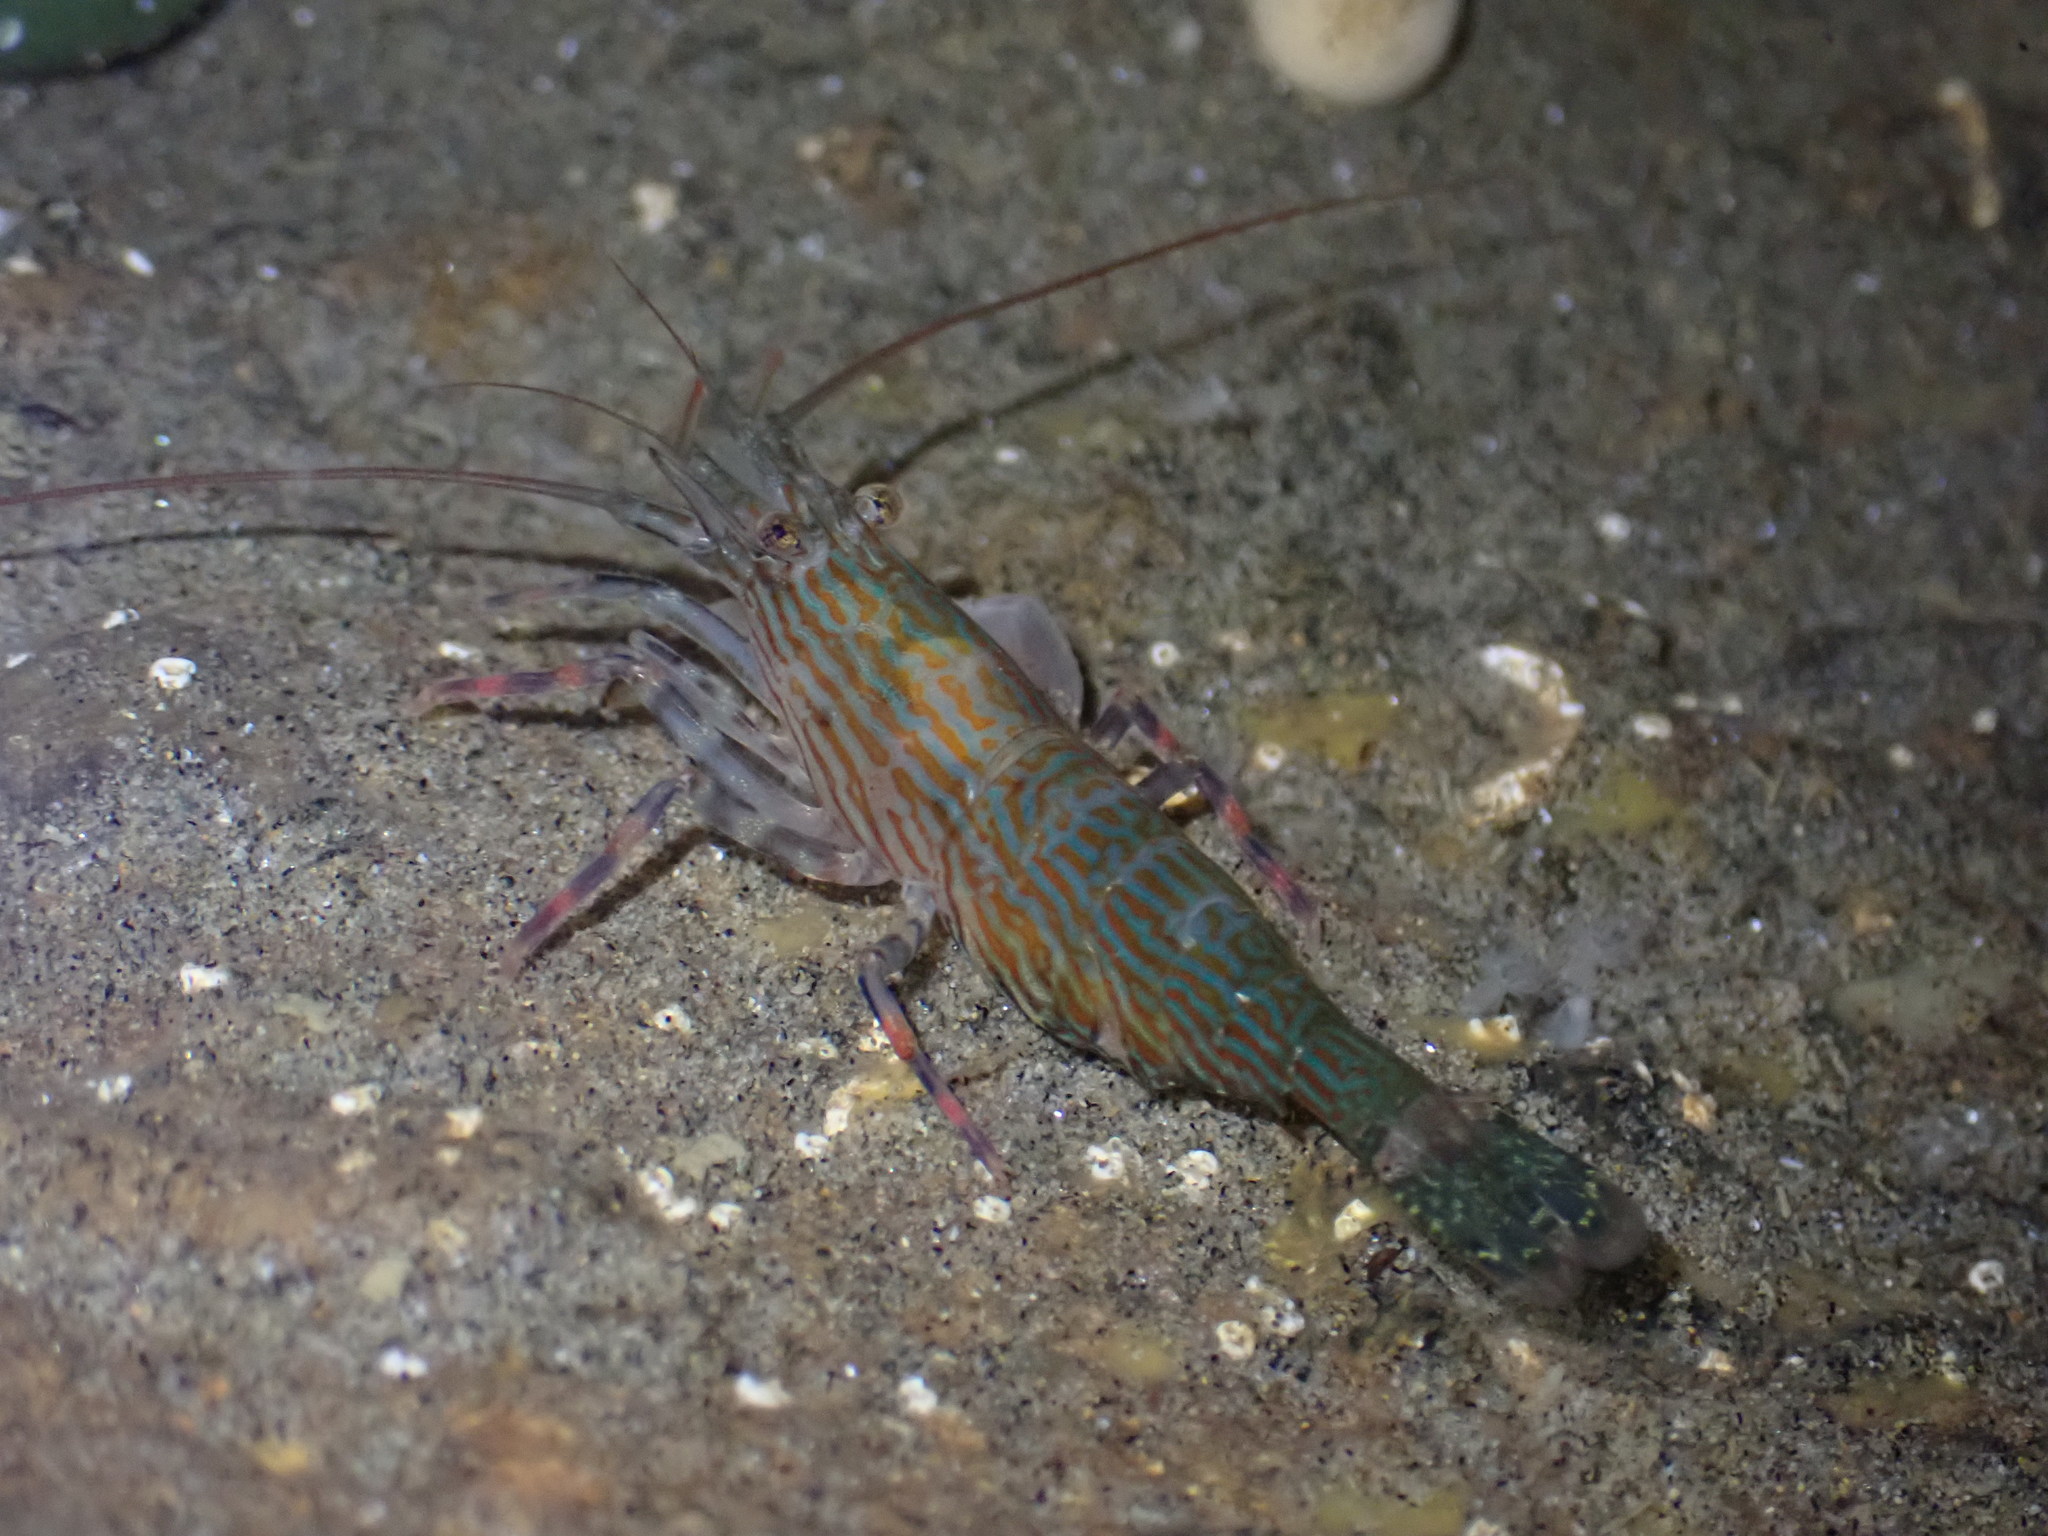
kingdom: Animalia
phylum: Arthropoda
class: Malacostraca
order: Decapoda
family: Hippolytidae
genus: Alope
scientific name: Alope spinifrons
